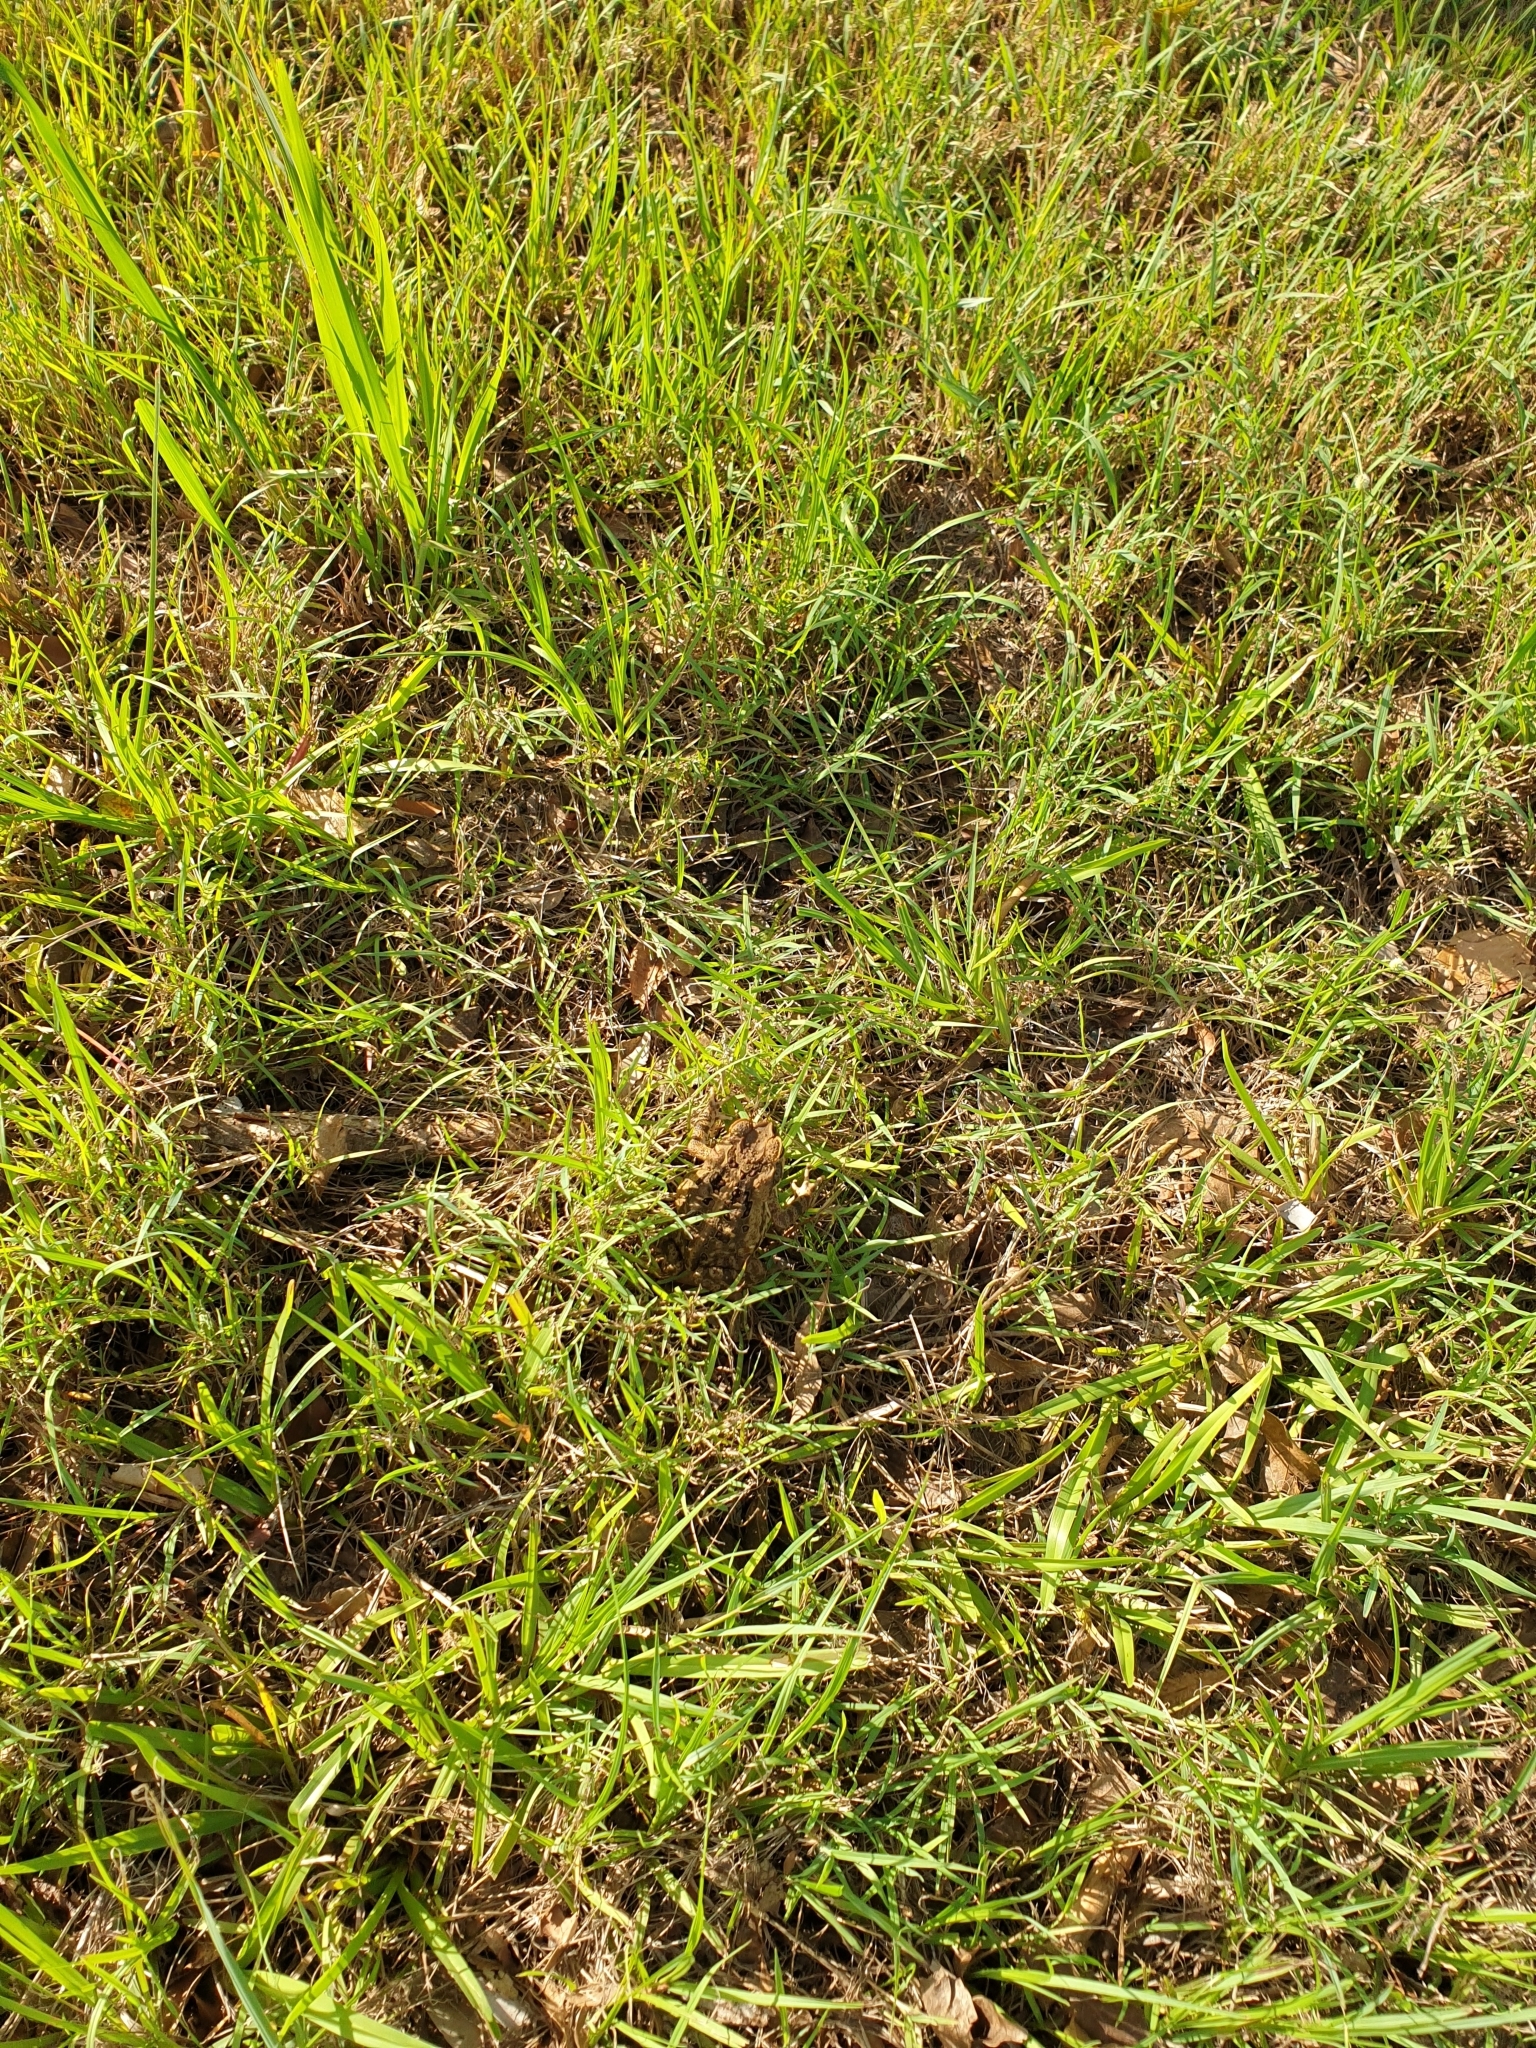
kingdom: Animalia
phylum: Chordata
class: Amphibia
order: Anura
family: Bufonidae
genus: Rhinella
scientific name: Rhinella marina
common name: Cane toad
